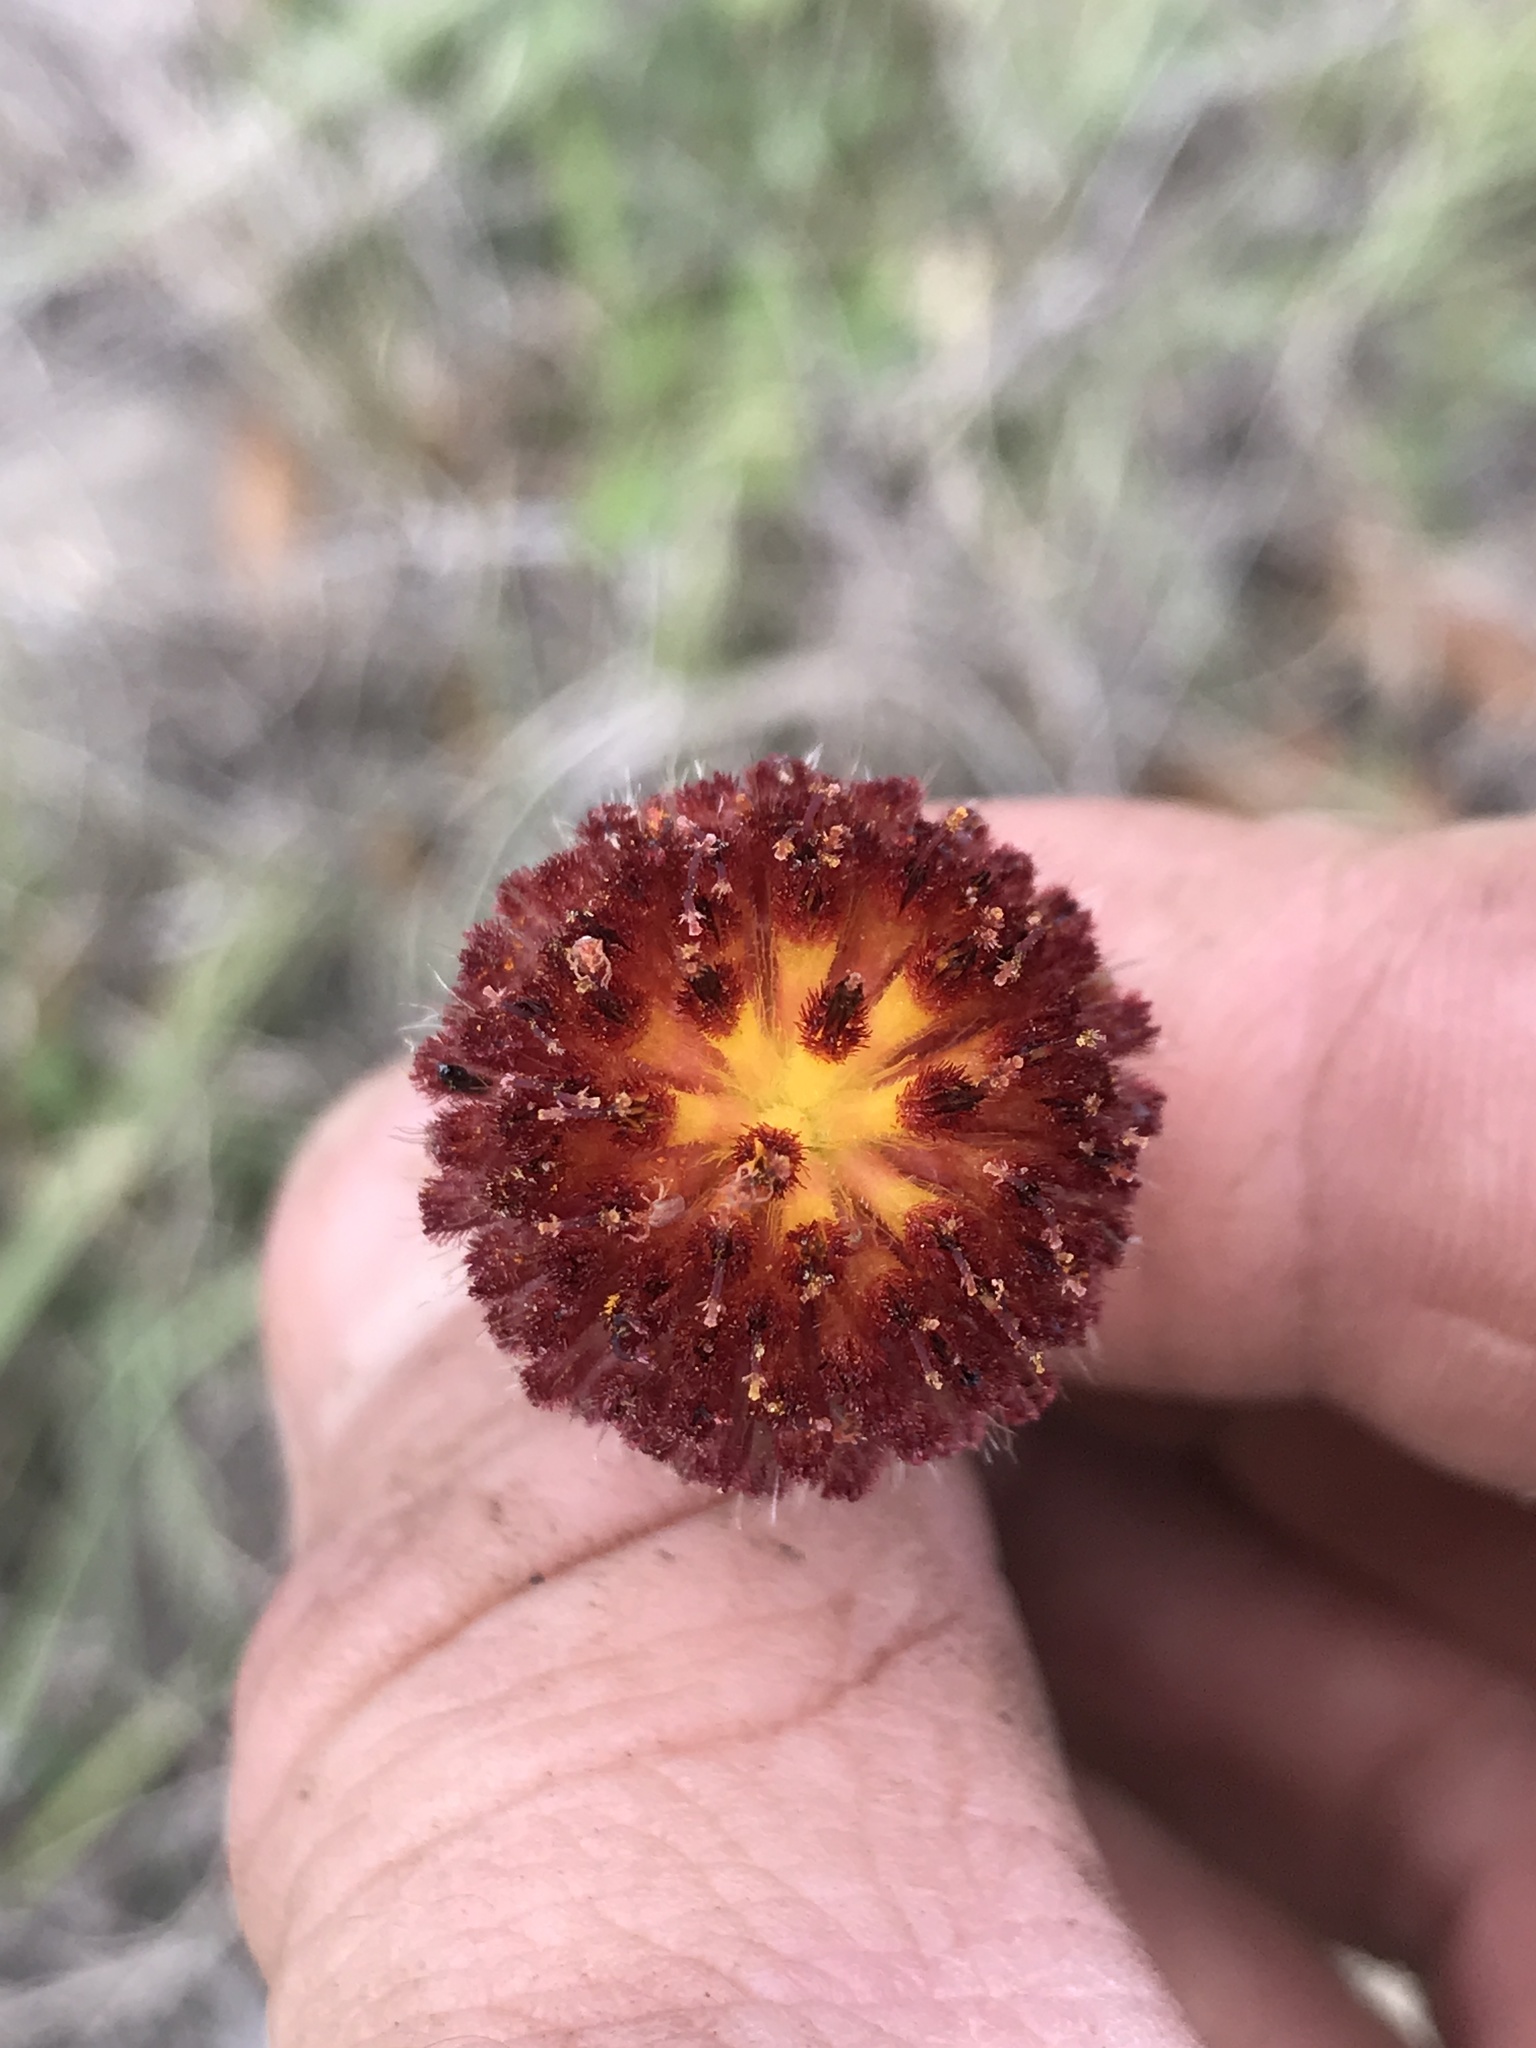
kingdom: Plantae
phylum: Tracheophyta
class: Magnoliopsida
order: Asterales
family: Asteraceae
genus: Gaillardia
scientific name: Gaillardia suavis
